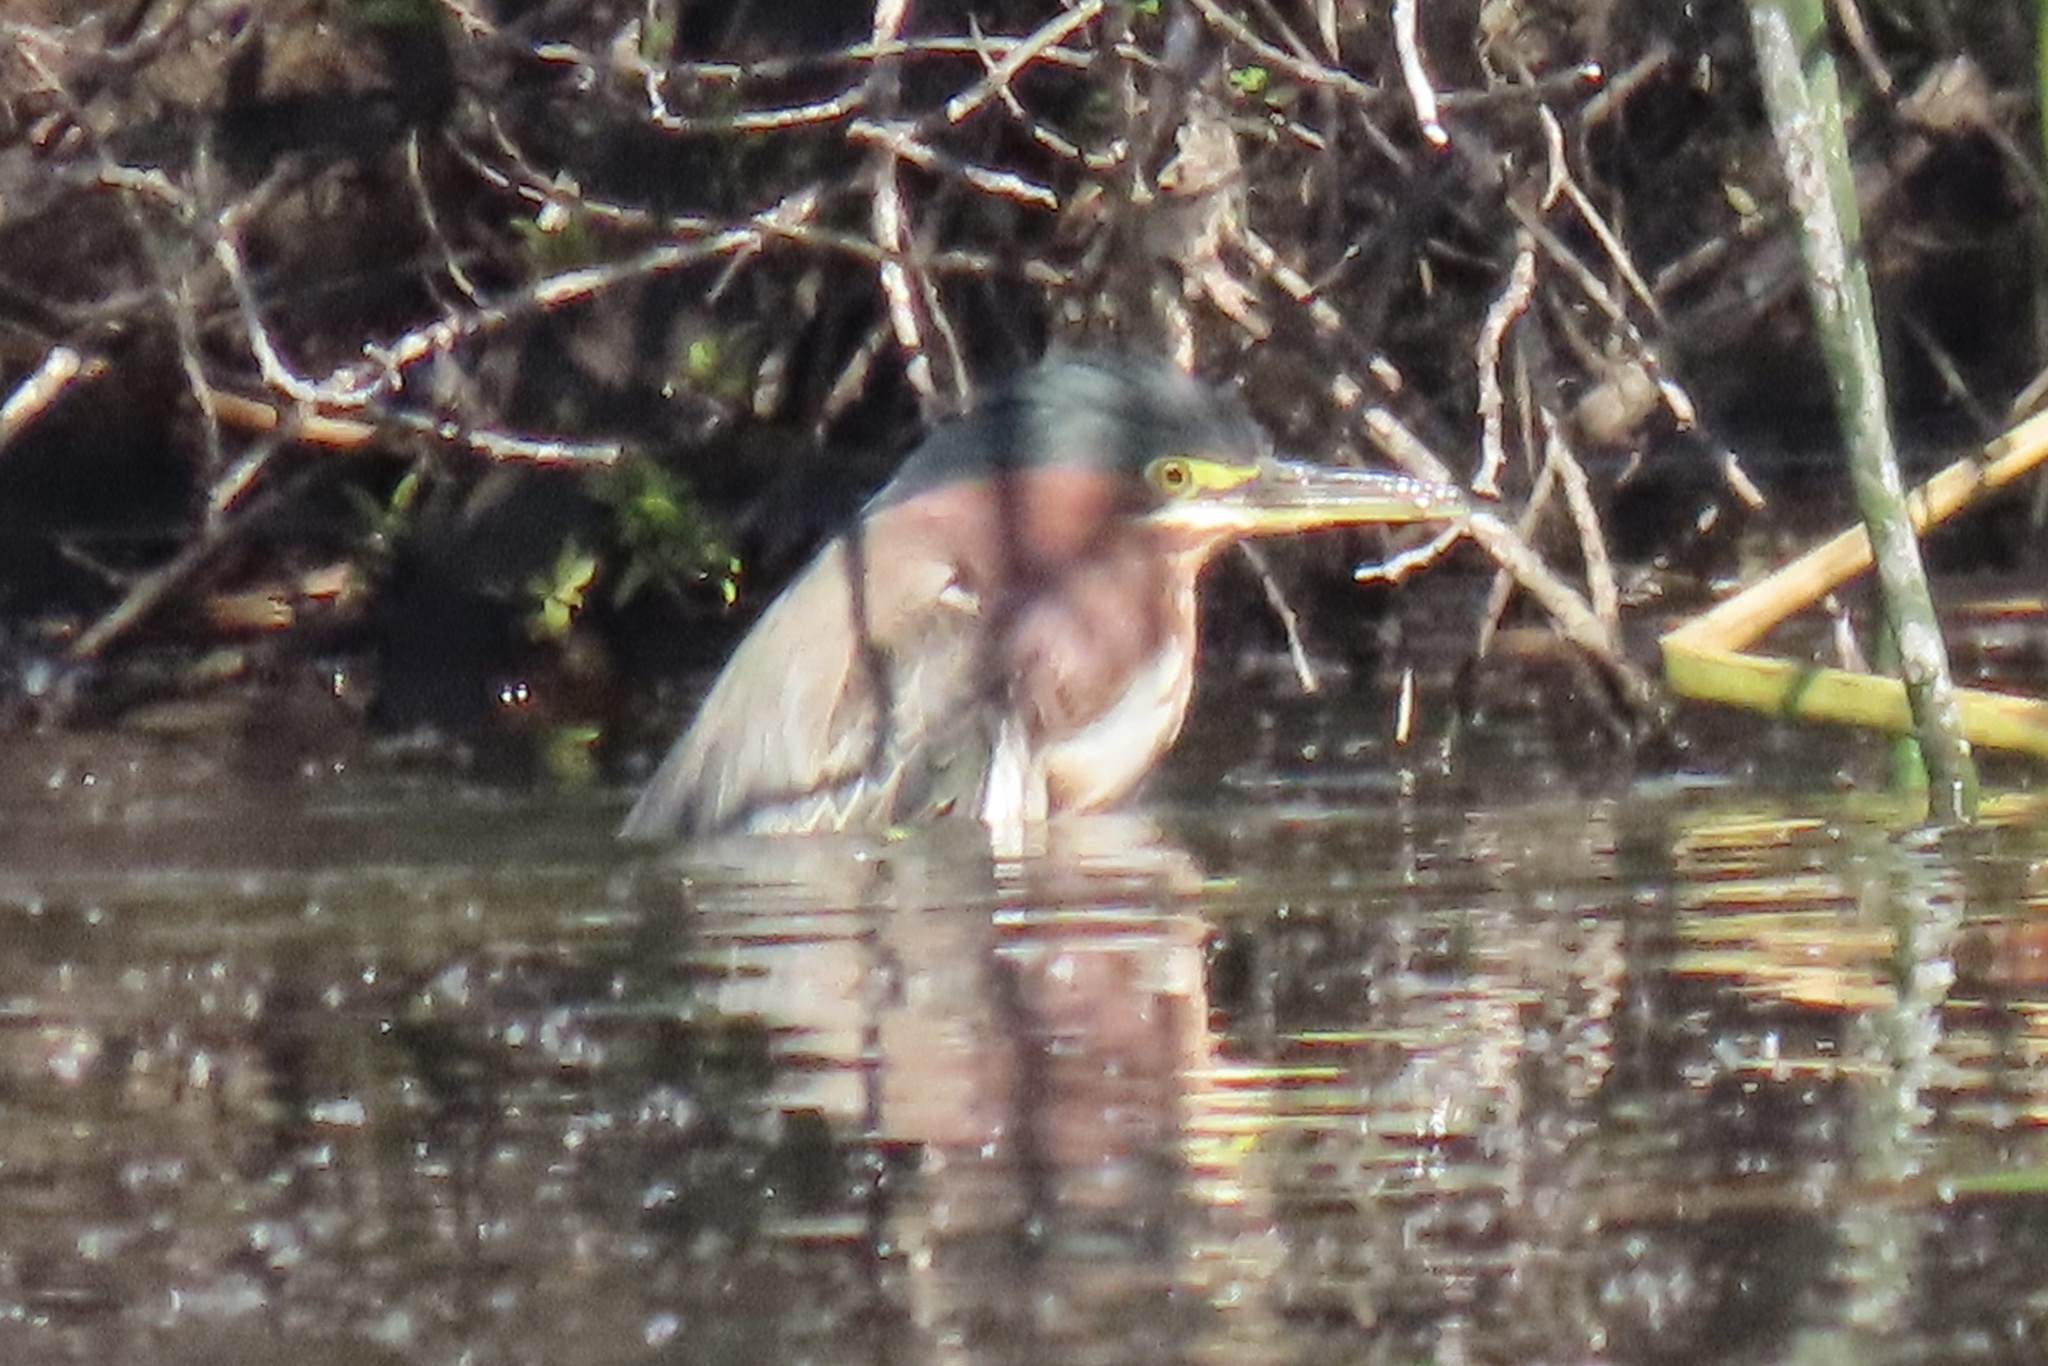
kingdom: Animalia
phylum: Chordata
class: Aves
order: Pelecaniformes
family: Ardeidae
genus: Butorides
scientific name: Butorides virescens
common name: Green heron
